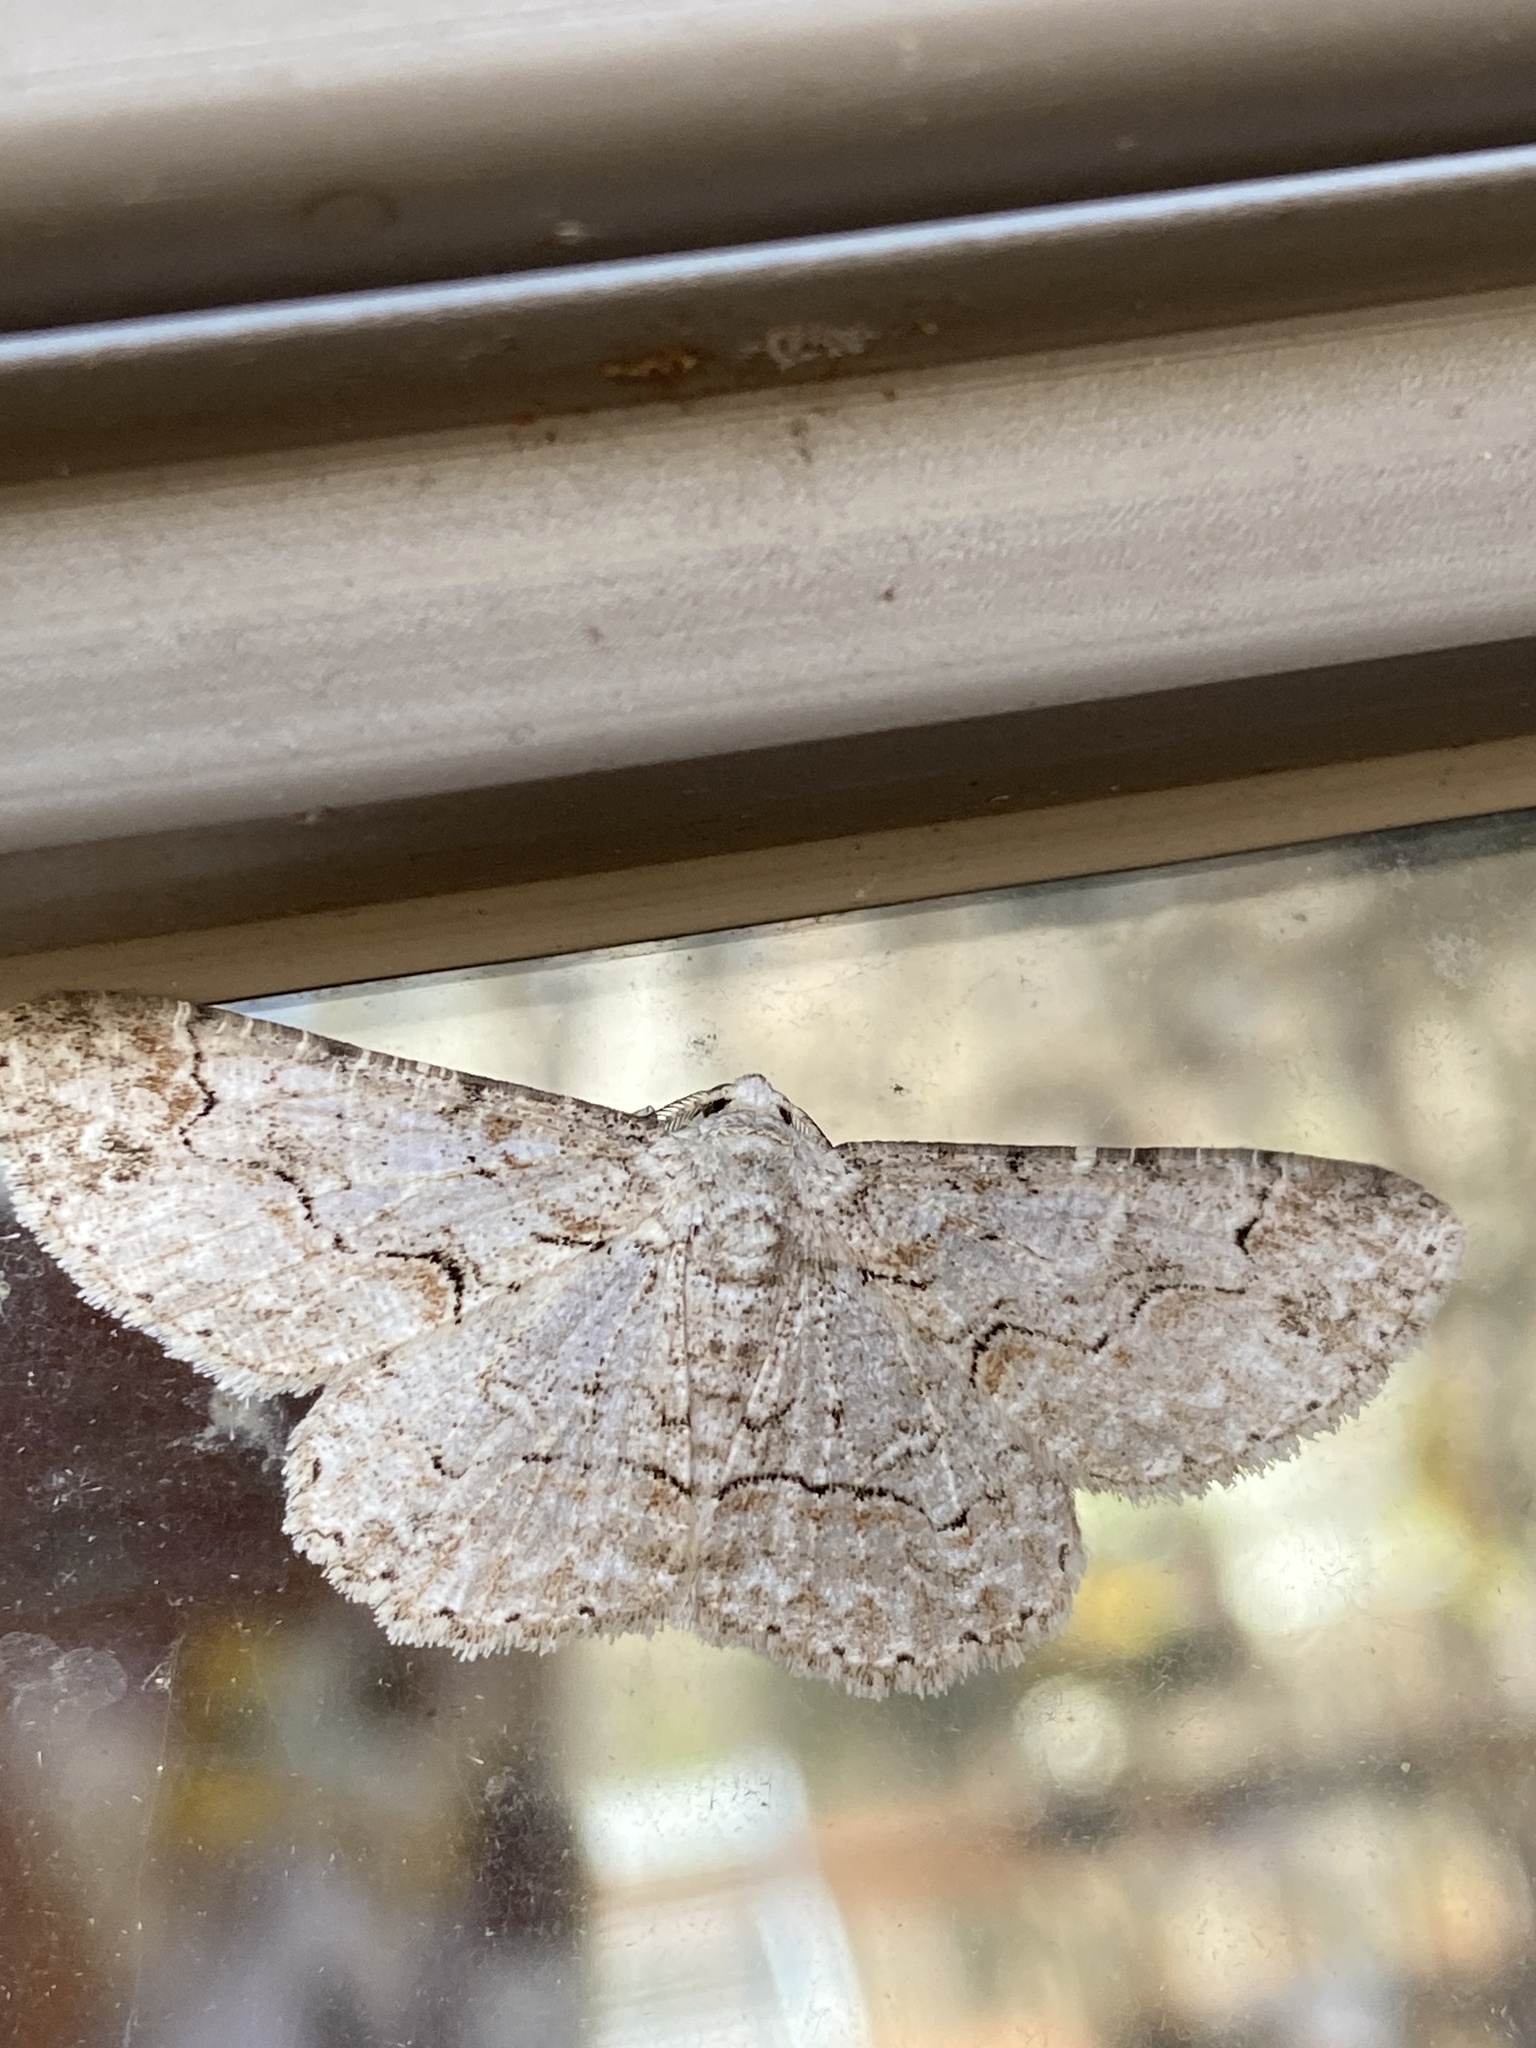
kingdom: Animalia
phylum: Arthropoda
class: Insecta
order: Lepidoptera
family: Geometridae
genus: Iridopsis
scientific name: Iridopsis defectaria
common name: Brown-shaded gray
